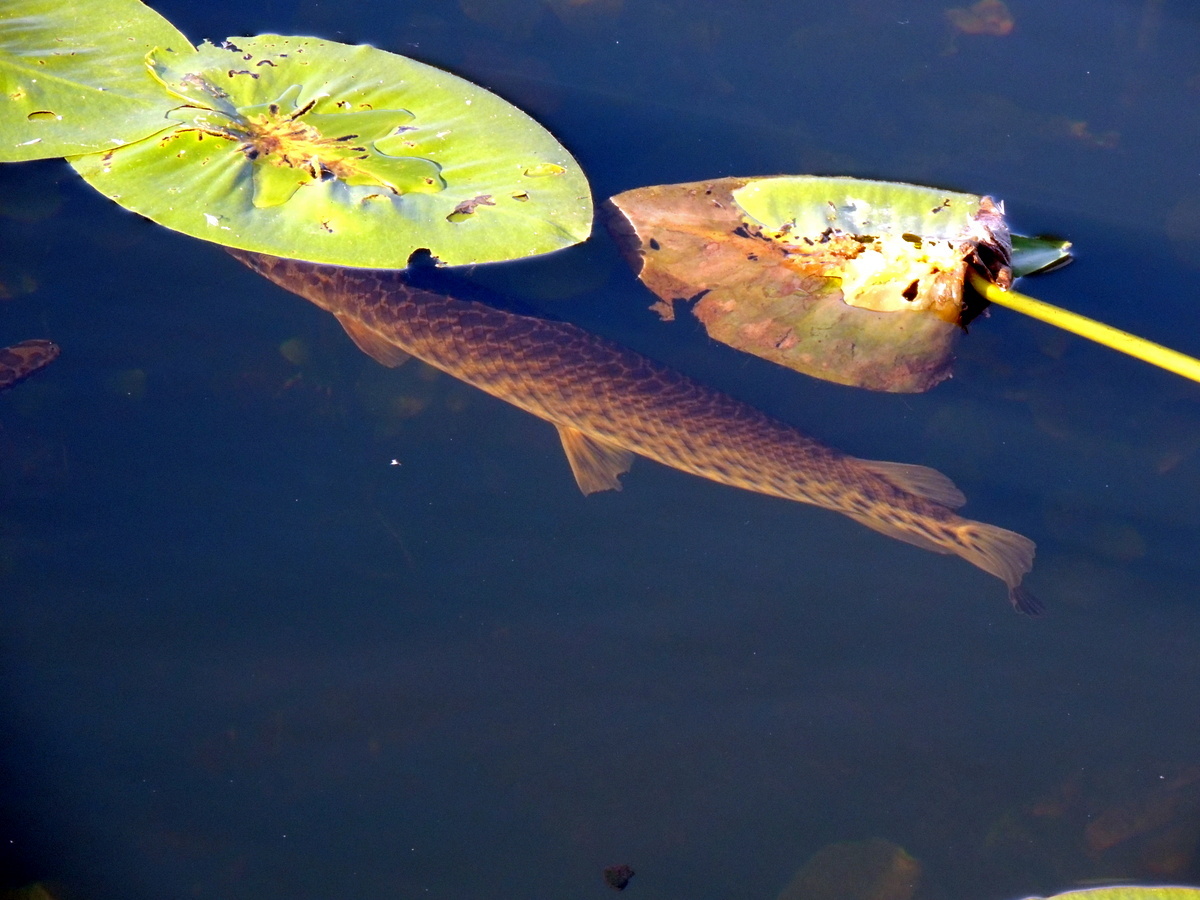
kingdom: Animalia
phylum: Chordata
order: Lepisosteiformes
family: Lepisosteidae
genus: Lepisosteus
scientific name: Lepisosteus platyrhincus
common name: Florida gar
